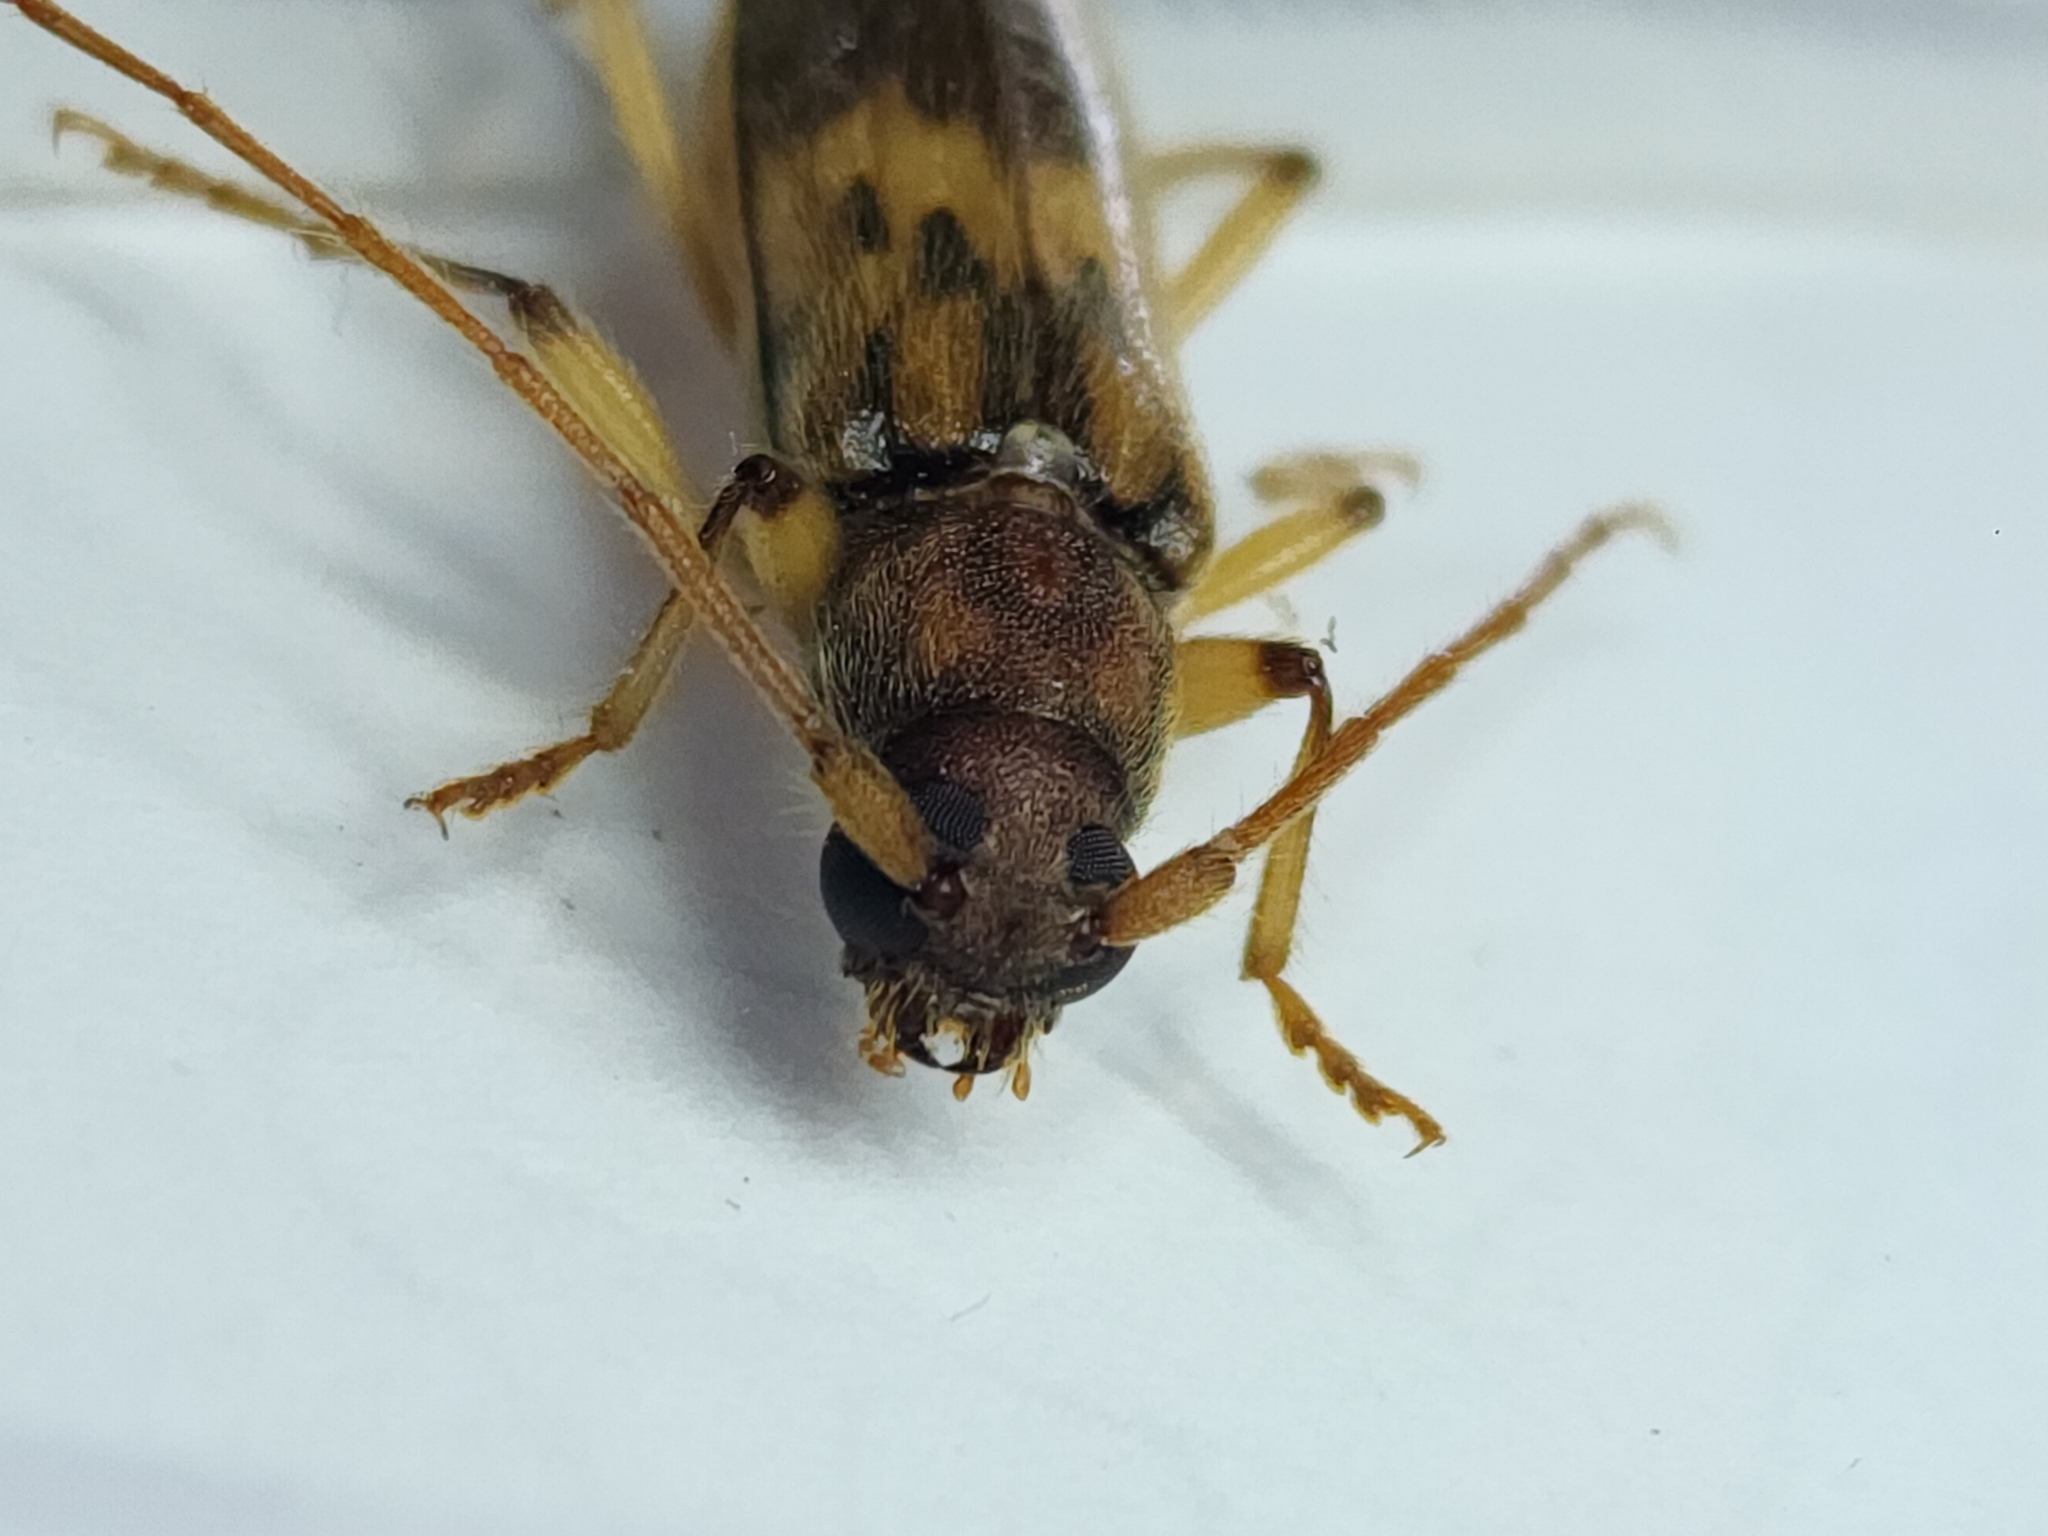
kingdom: Animalia
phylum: Arthropoda
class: Insecta
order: Coleoptera
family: Cerambycidae
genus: Achryson
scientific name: Achryson lutarium
